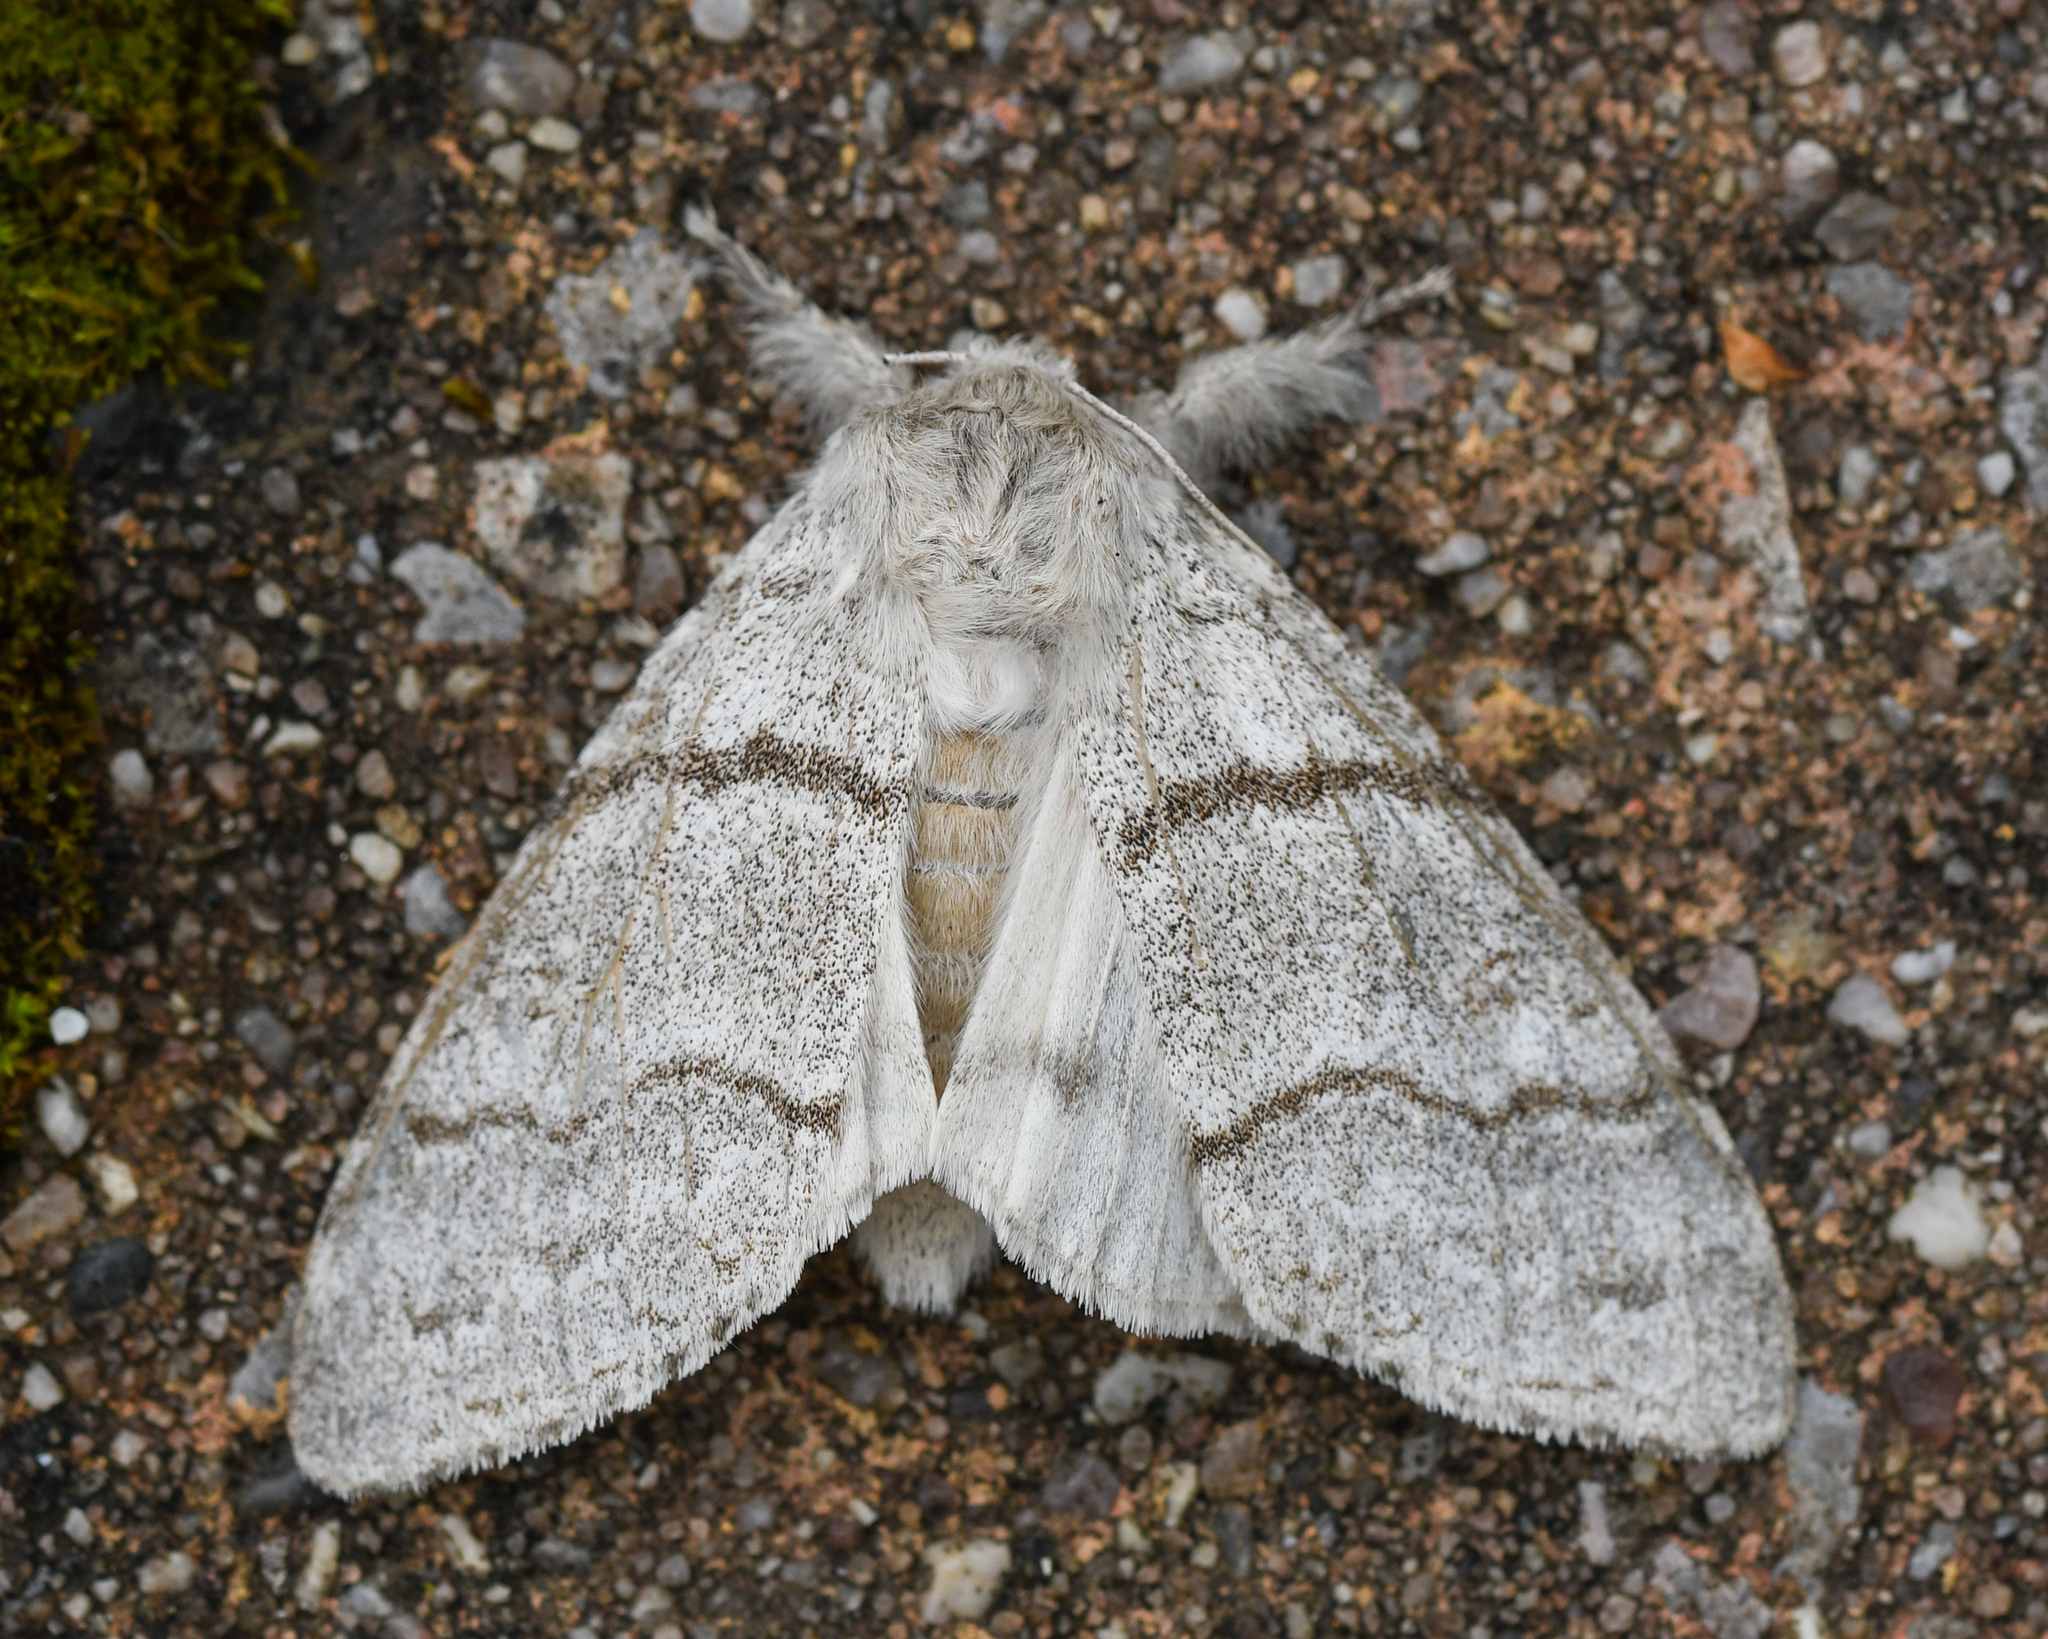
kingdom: Animalia
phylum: Arthropoda
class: Insecta
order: Lepidoptera
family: Erebidae
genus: Calliteara
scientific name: Calliteara pudibunda
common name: Pale tussock
